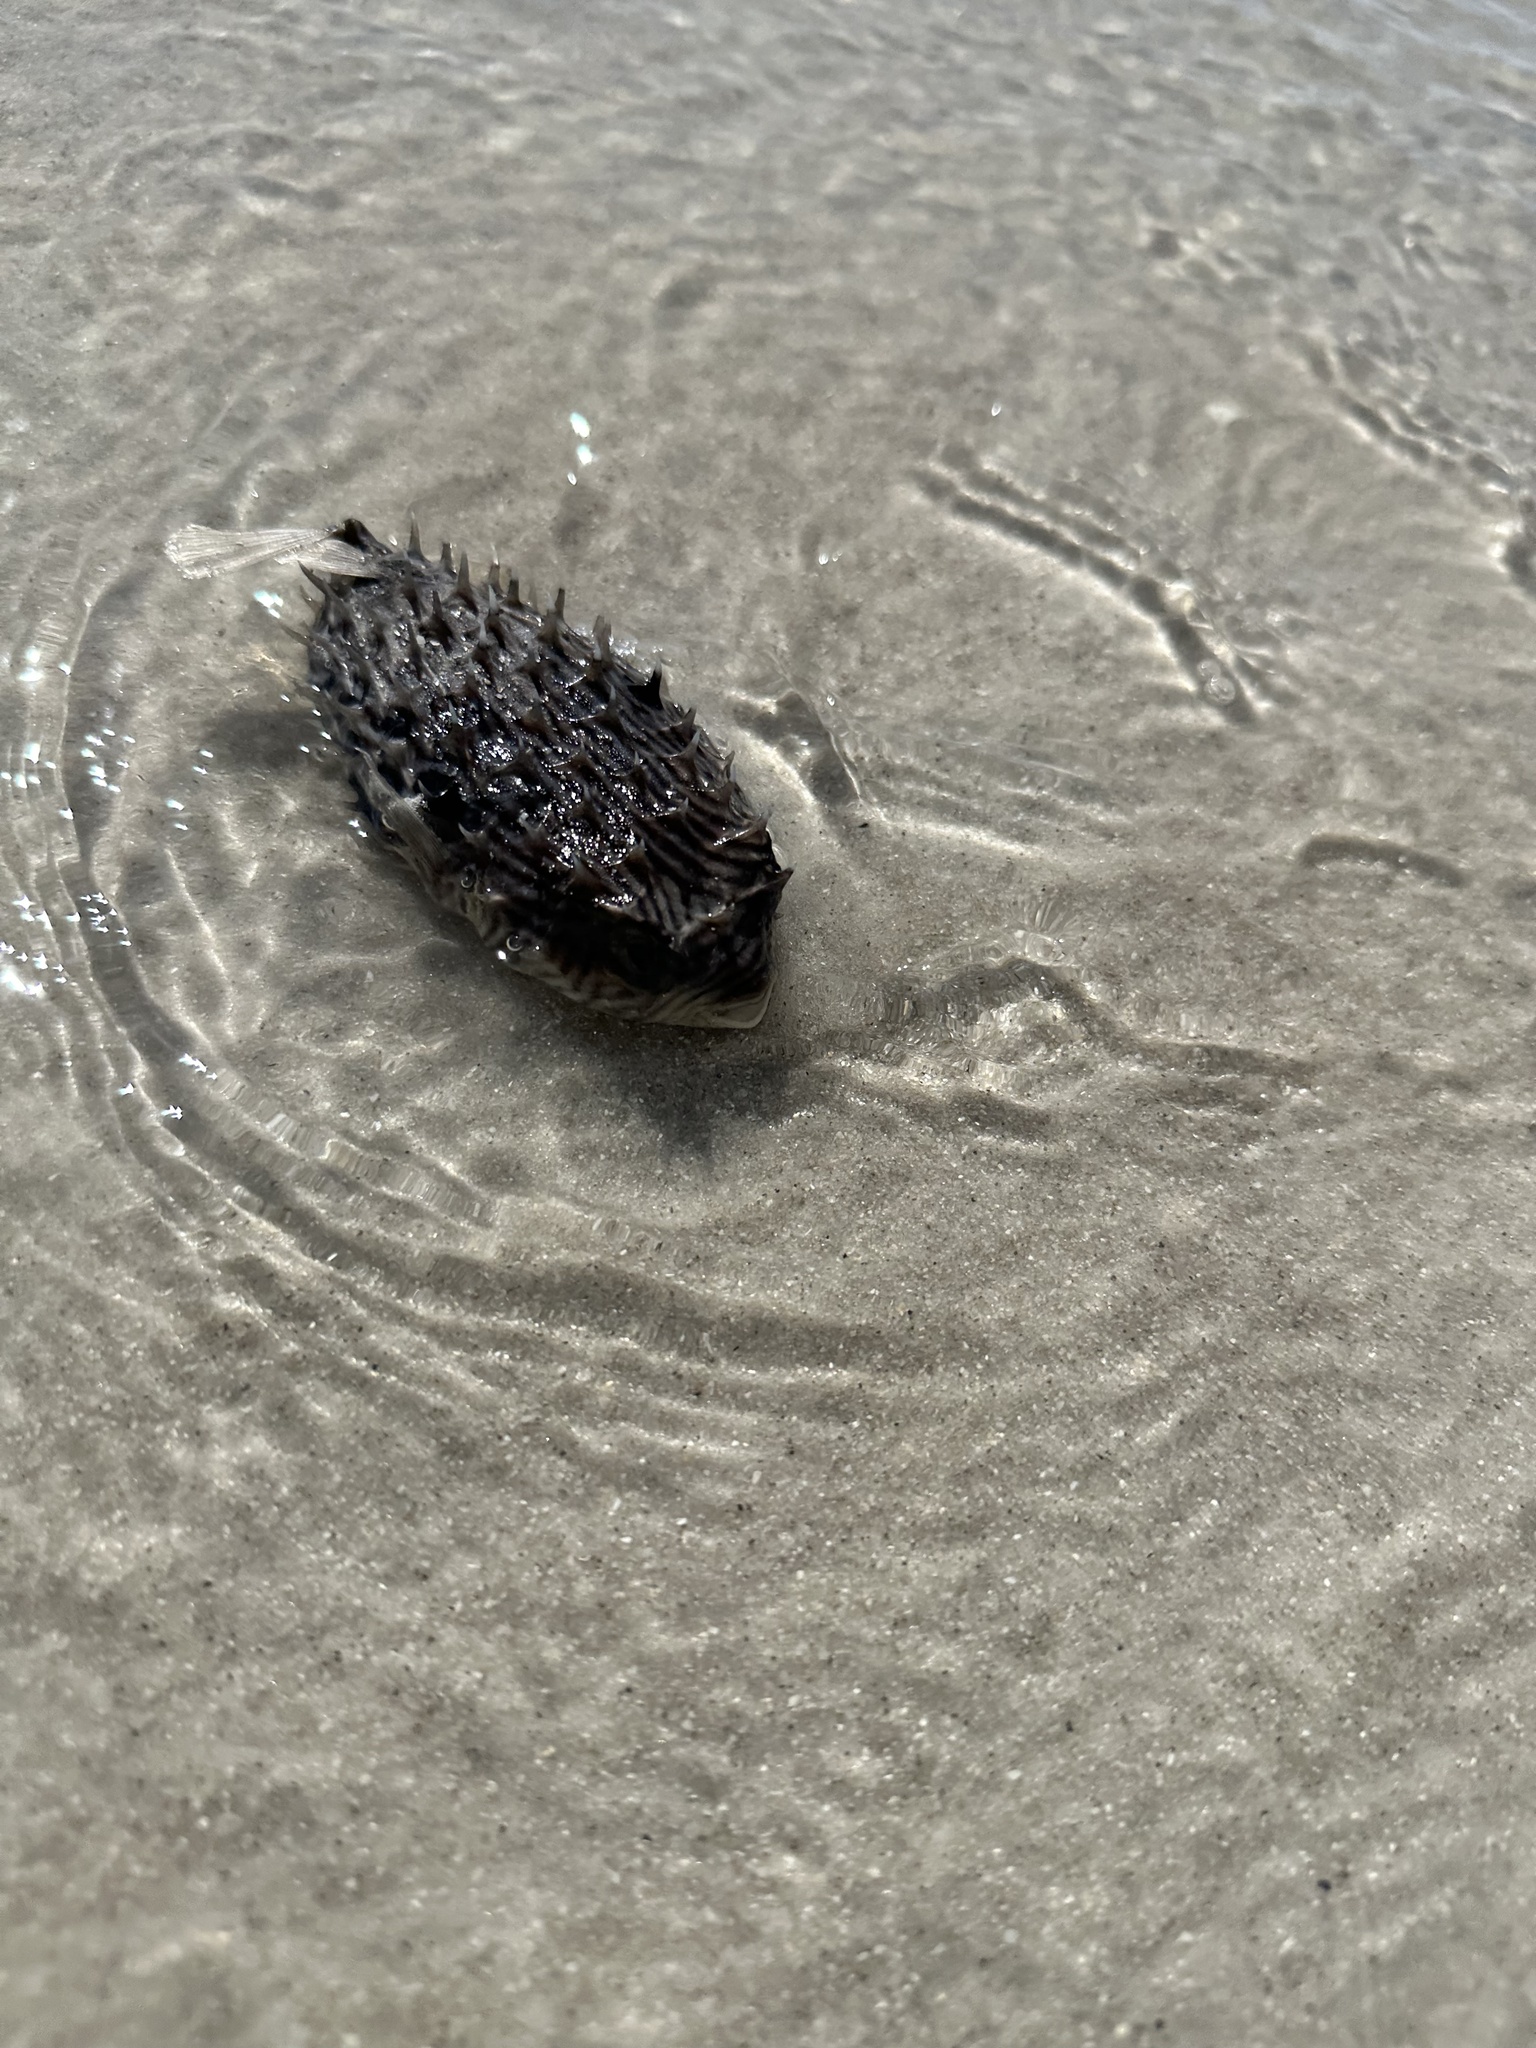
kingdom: Animalia
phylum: Chordata
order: Tetraodontiformes
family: Diodontidae
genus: Chilomycterus
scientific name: Chilomycterus schoepfii
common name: Striped burrfish
